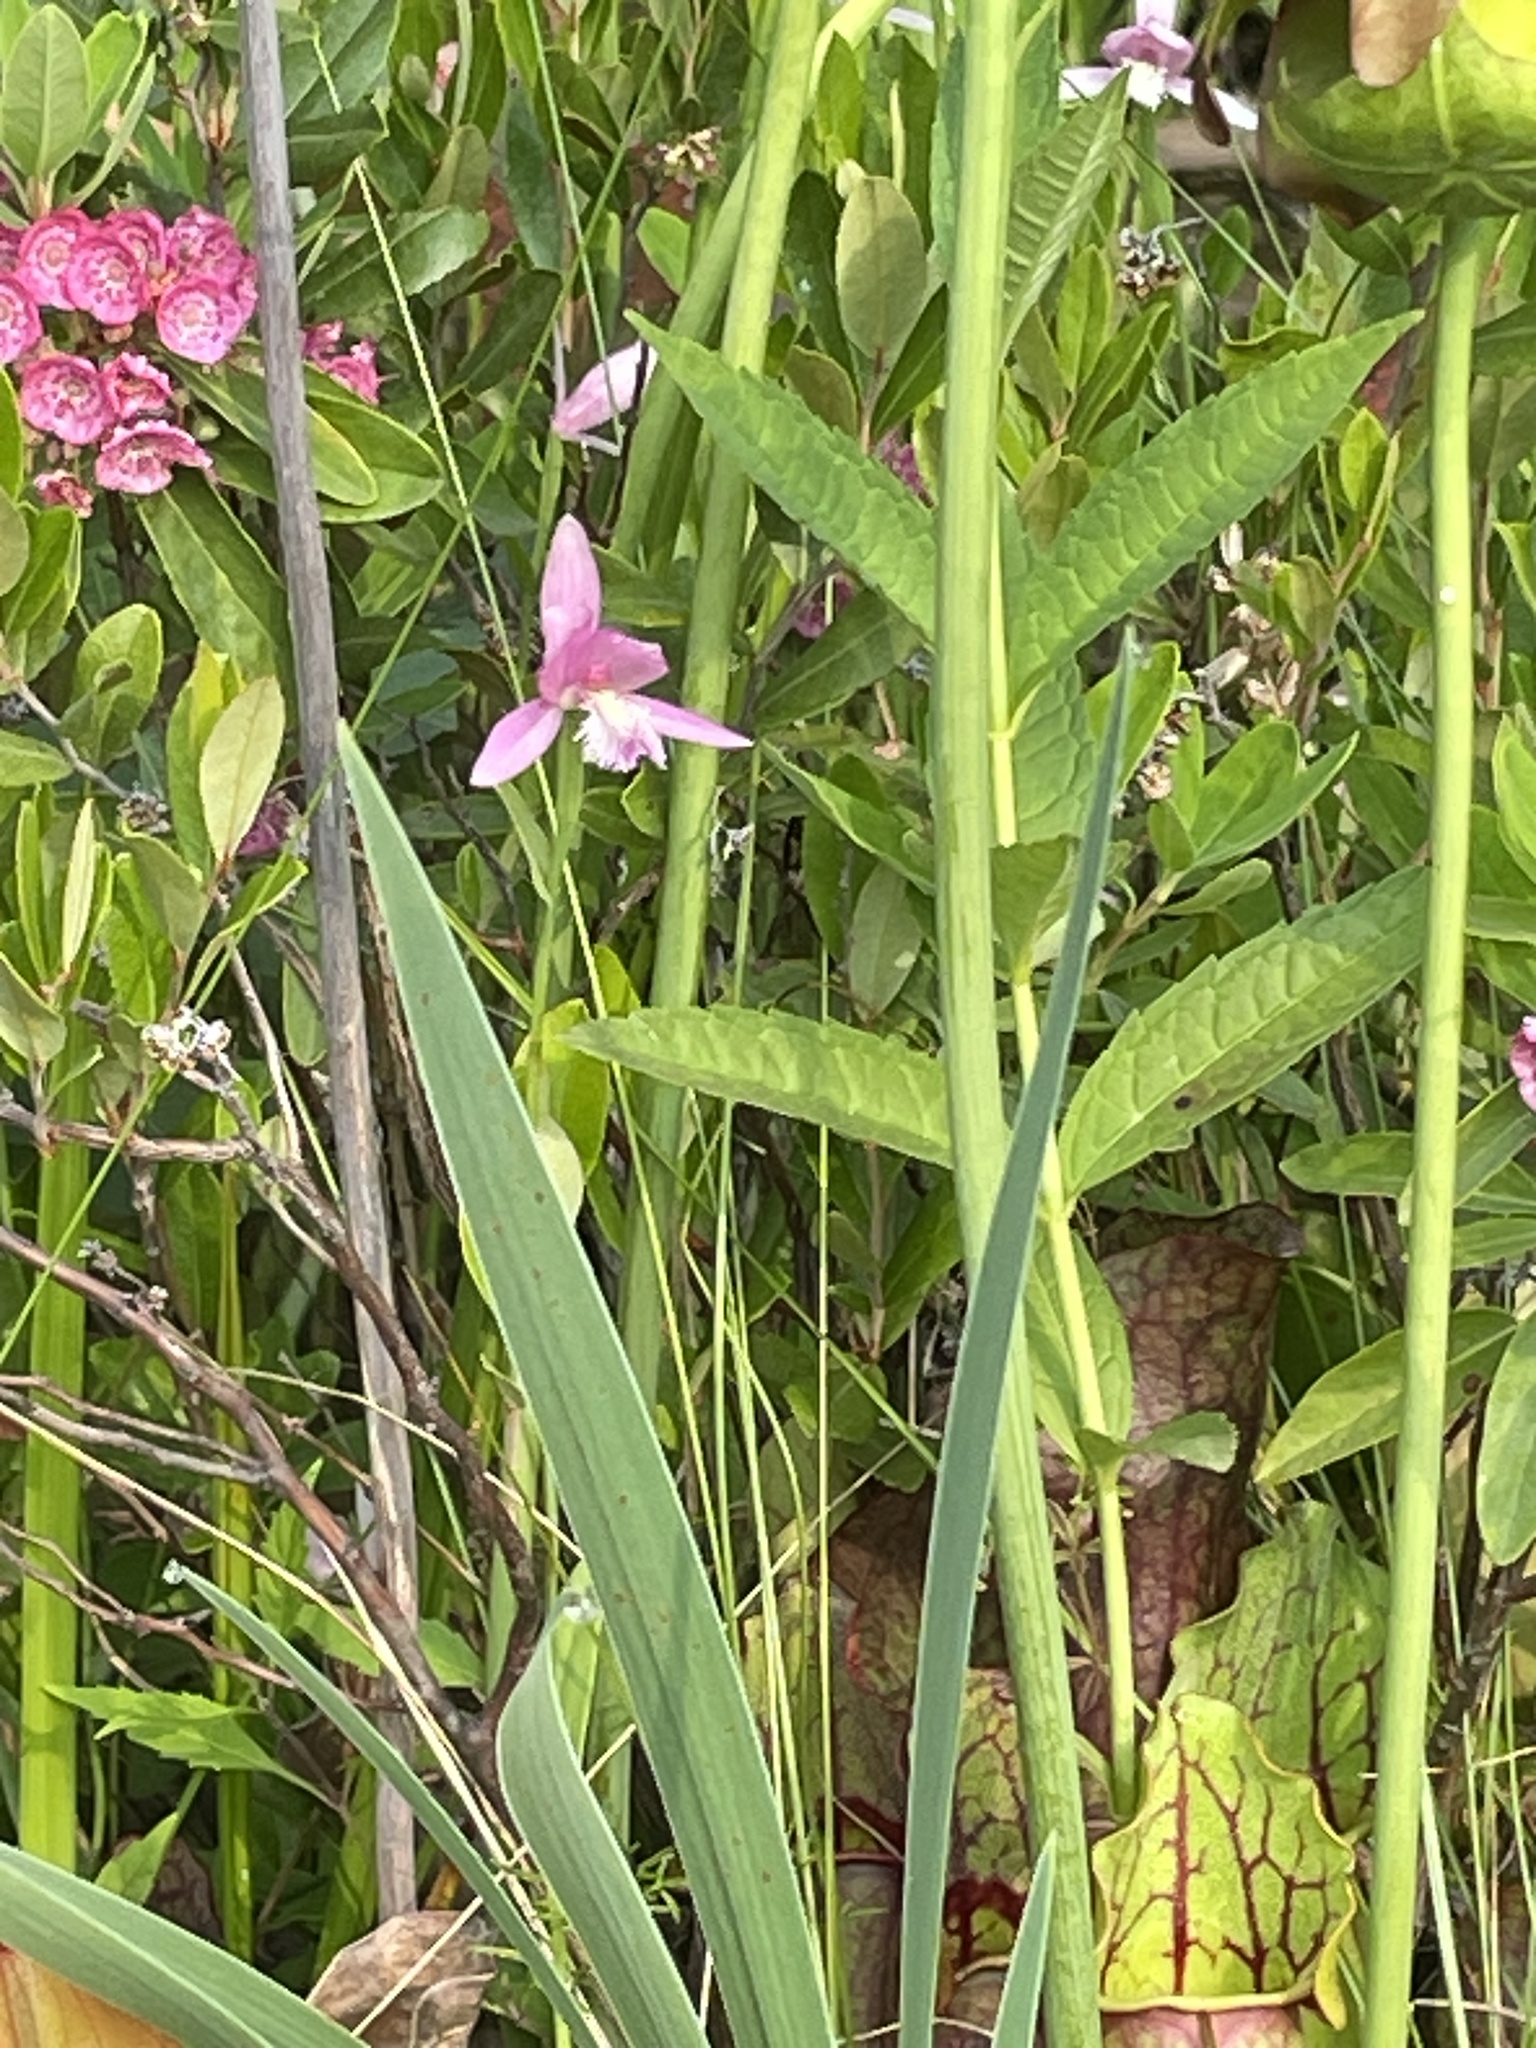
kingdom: Plantae
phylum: Tracheophyta
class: Liliopsida
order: Asparagales
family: Orchidaceae
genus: Pogonia
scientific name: Pogonia ophioglossoides
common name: Rose pogonia
